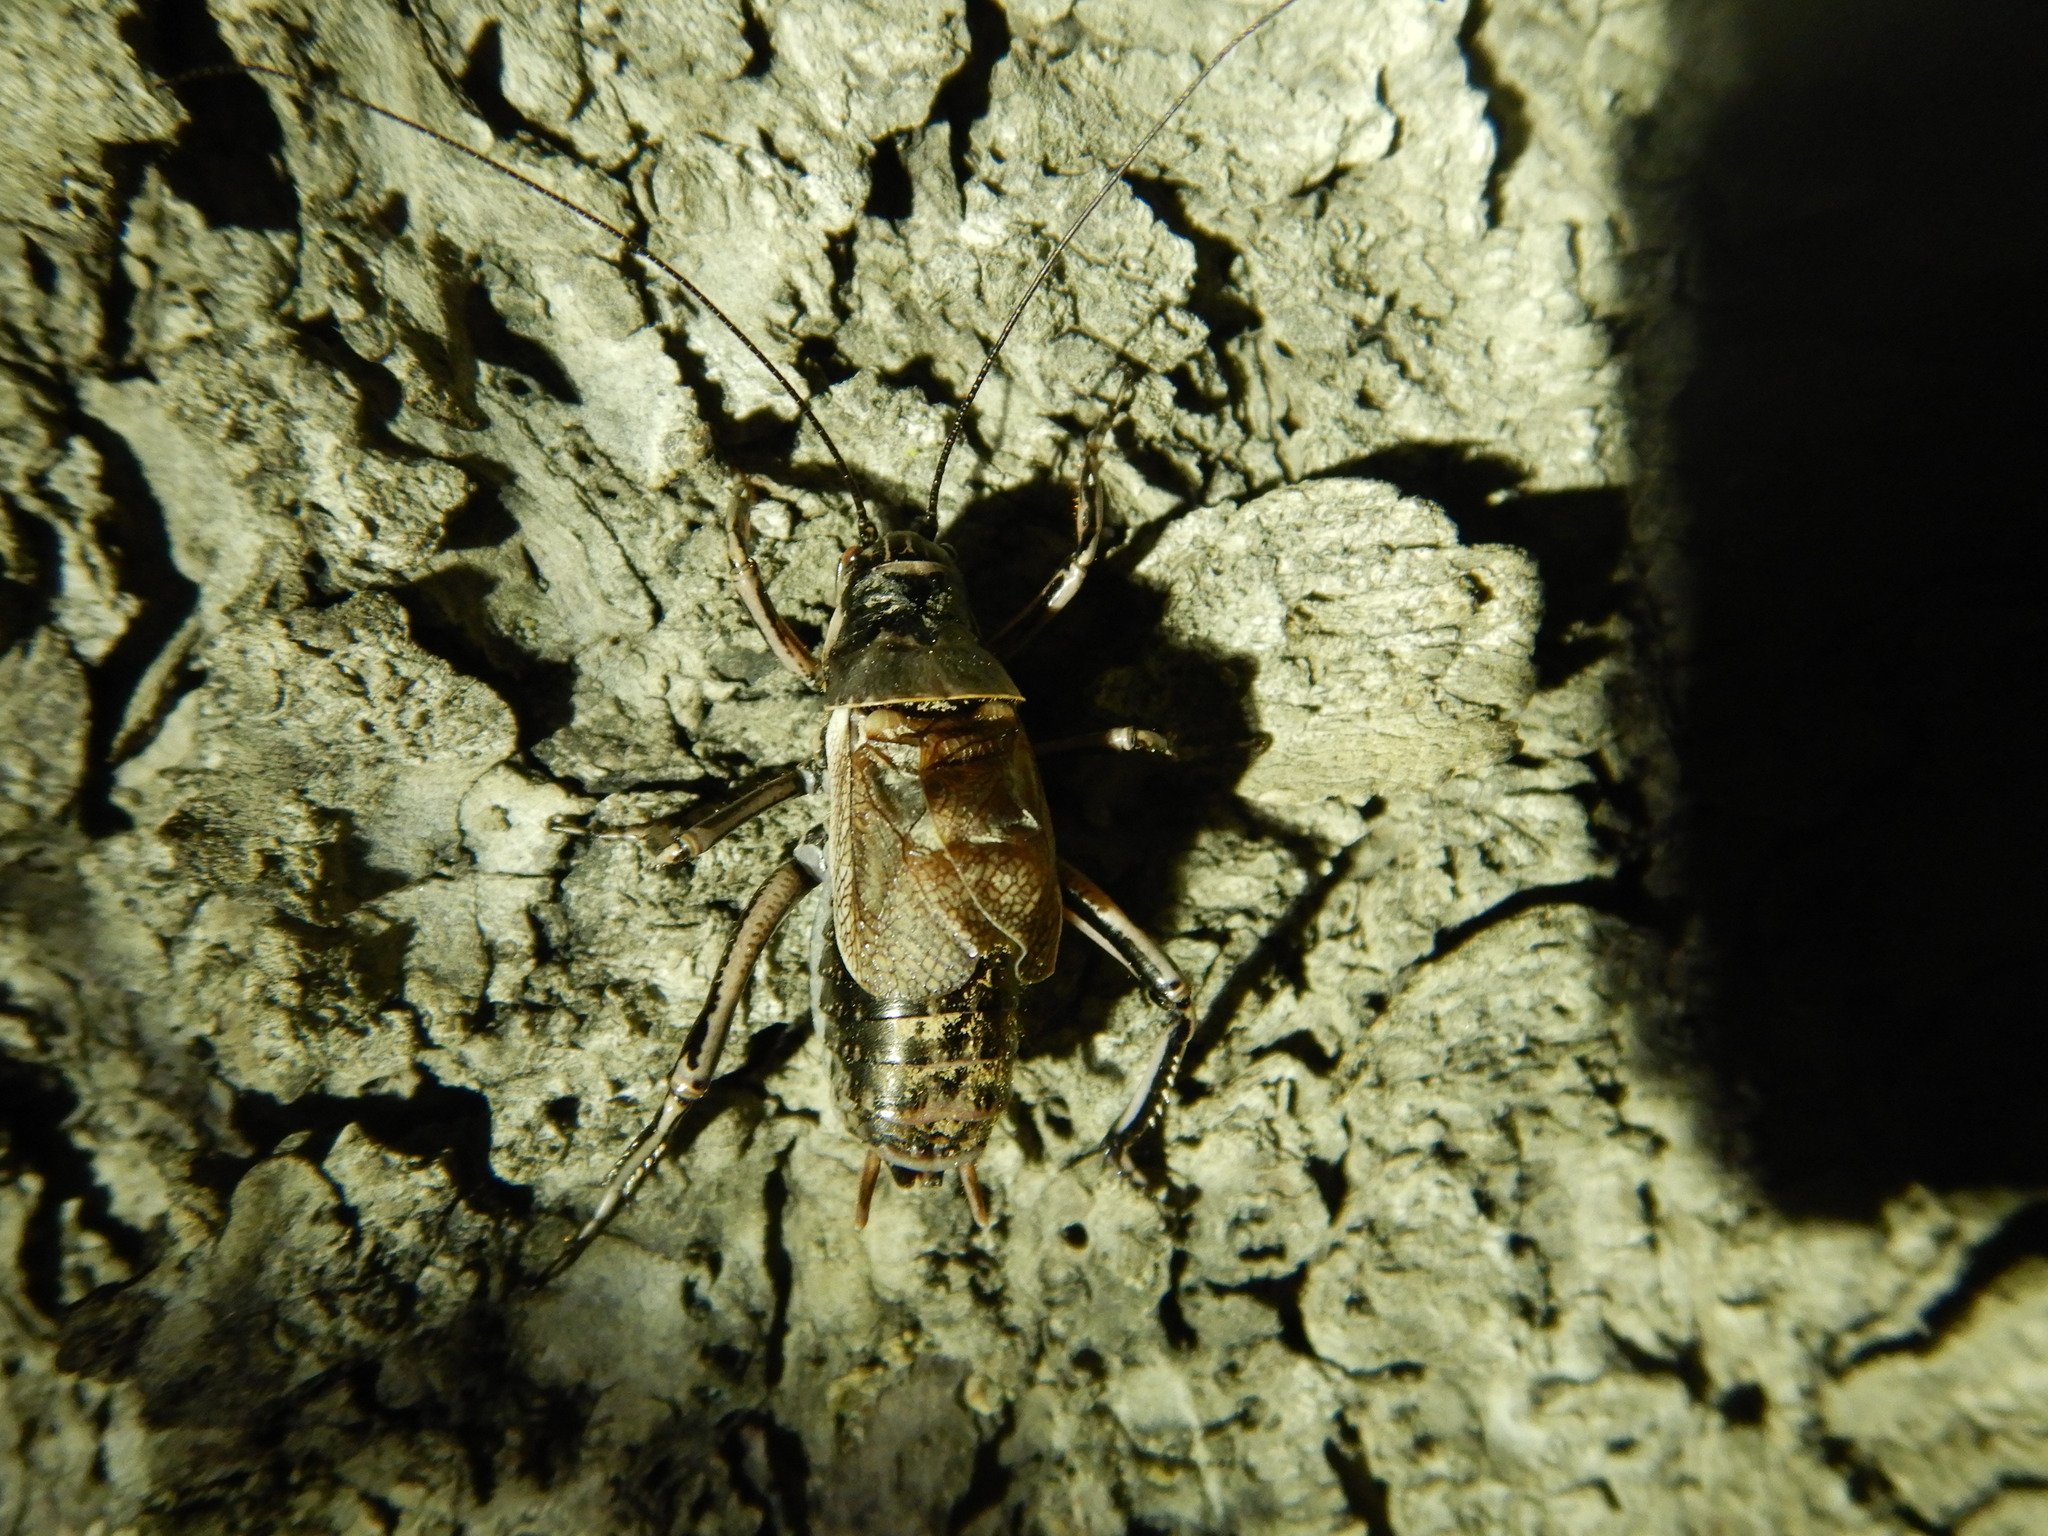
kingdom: Animalia
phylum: Arthropoda
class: Insecta
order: Orthoptera
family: Prophalangopsidae
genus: Cyphoderris
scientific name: Cyphoderris monstrosa
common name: Great grig
